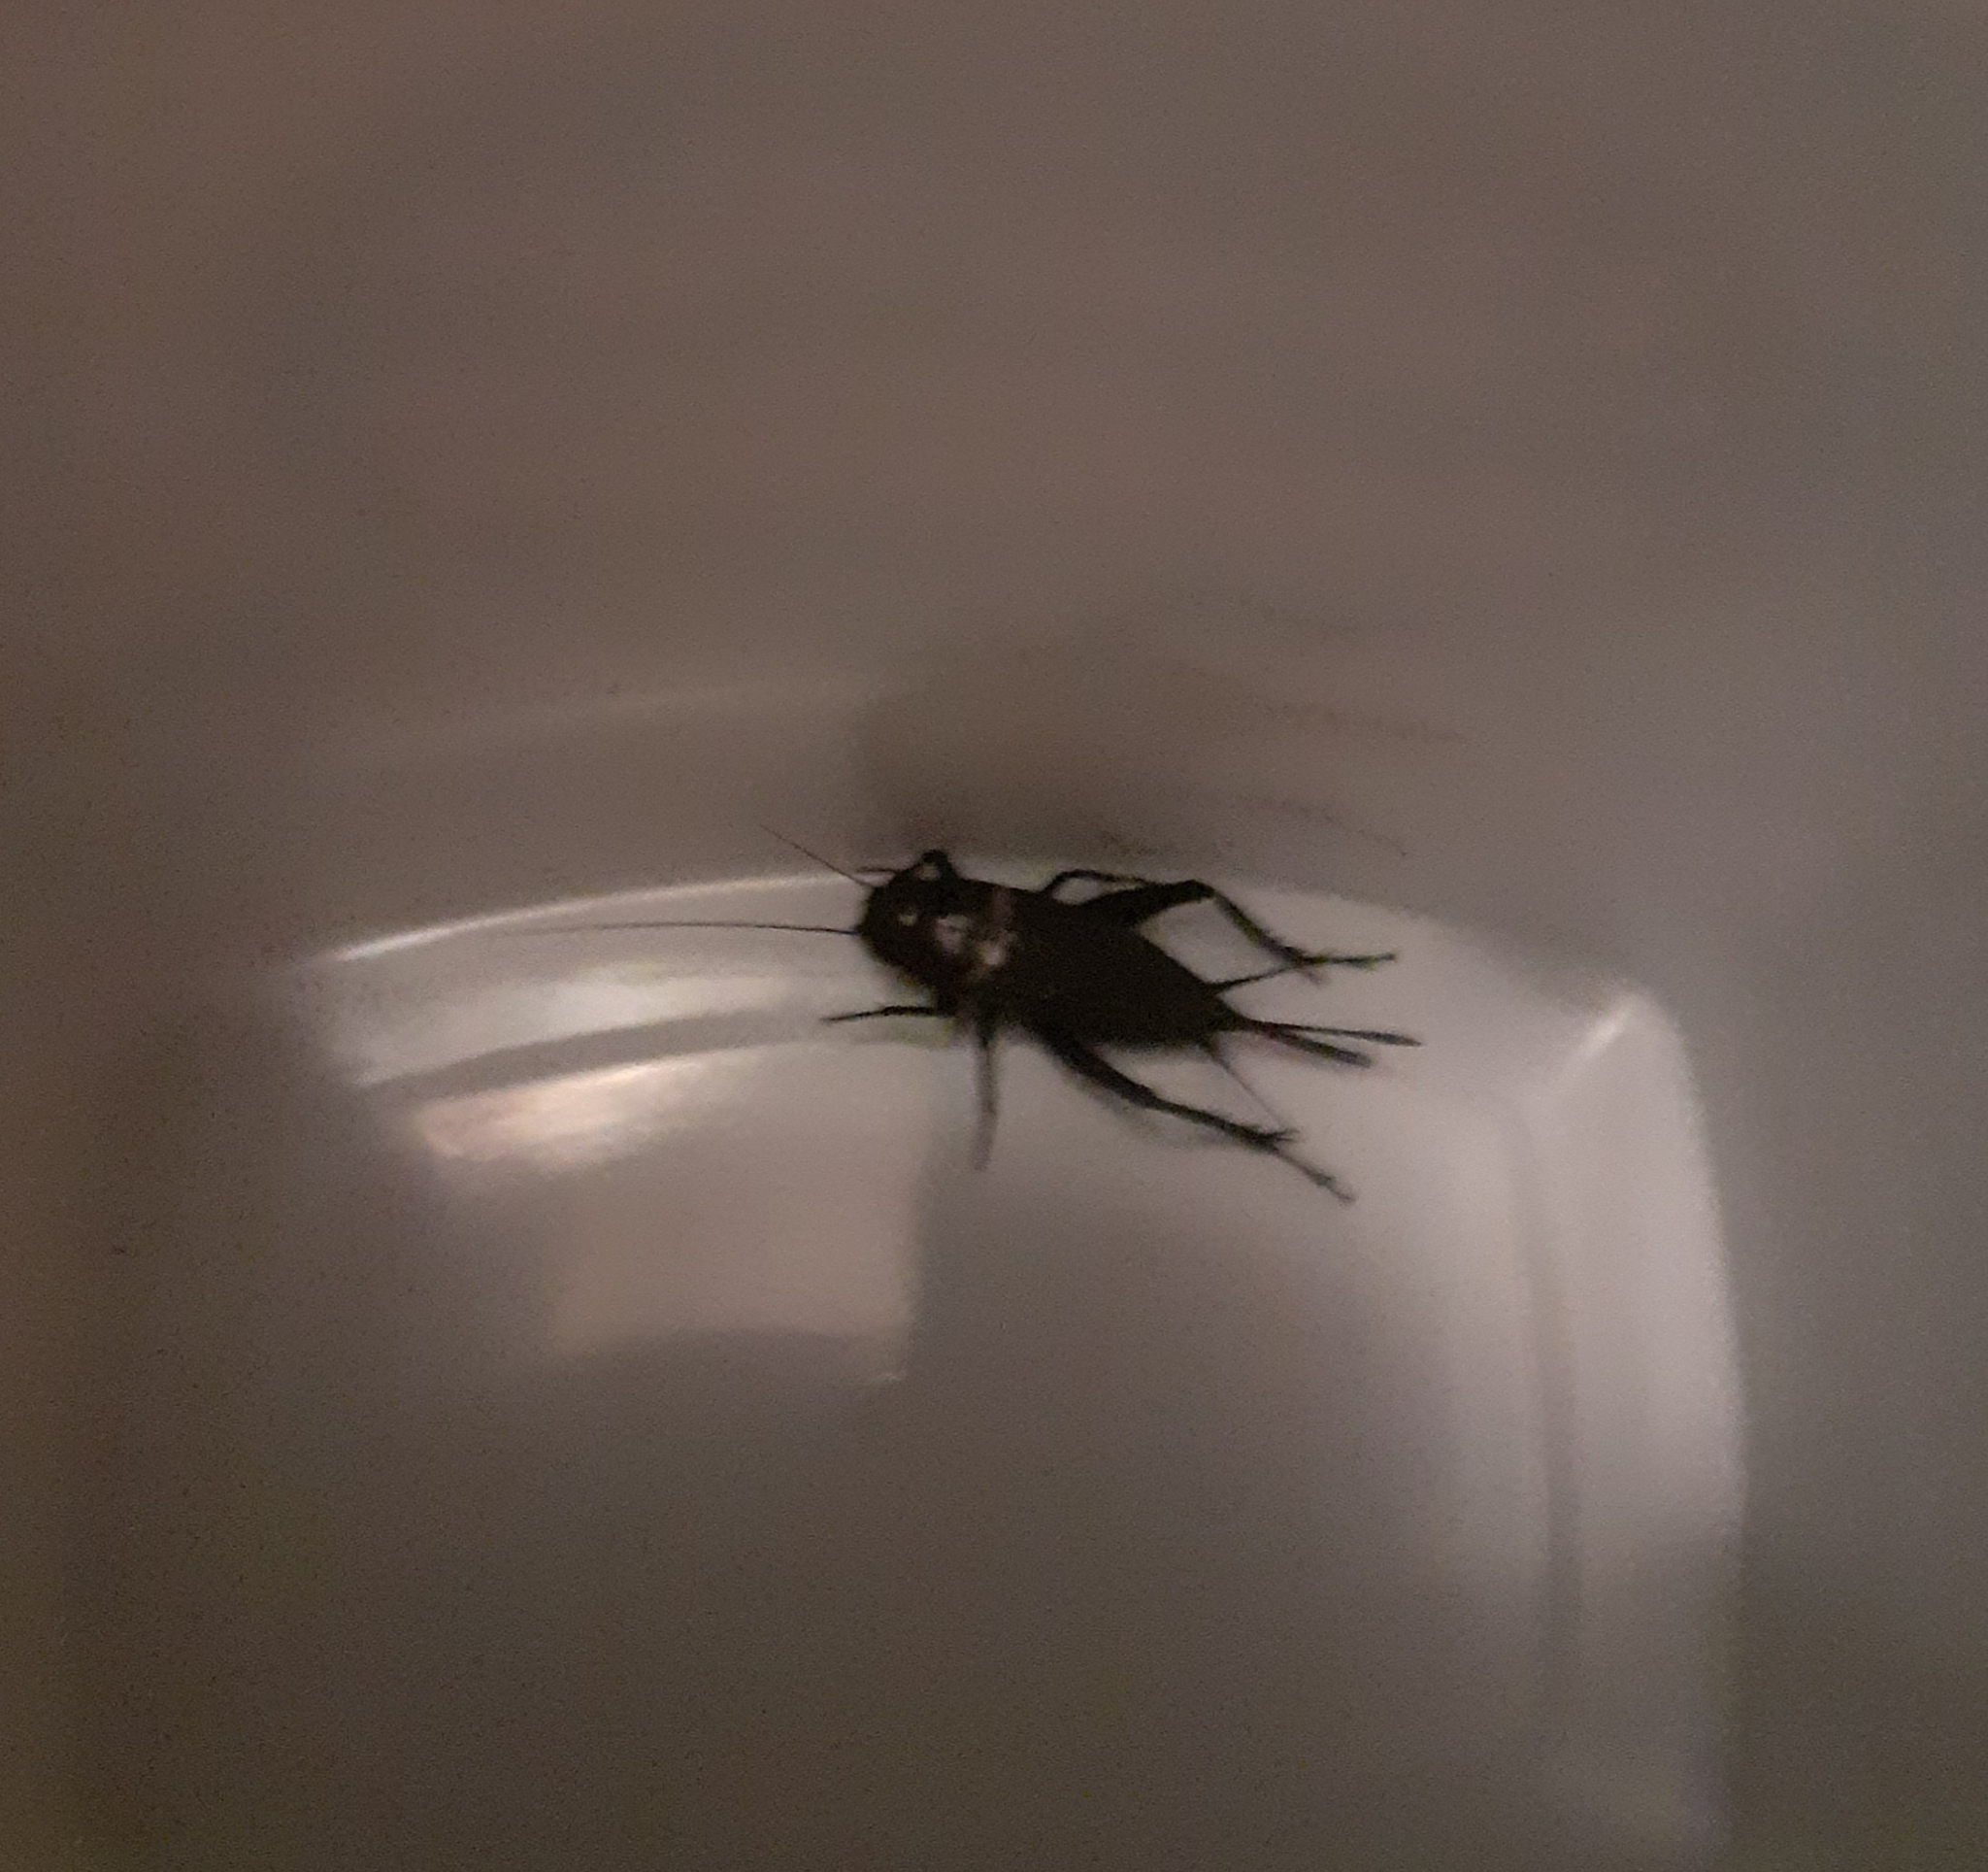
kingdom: Animalia
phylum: Arthropoda
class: Insecta
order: Orthoptera
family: Gryllidae
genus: Gryllus
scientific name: Gryllus bimaculatus
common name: Two-spotted cricket
